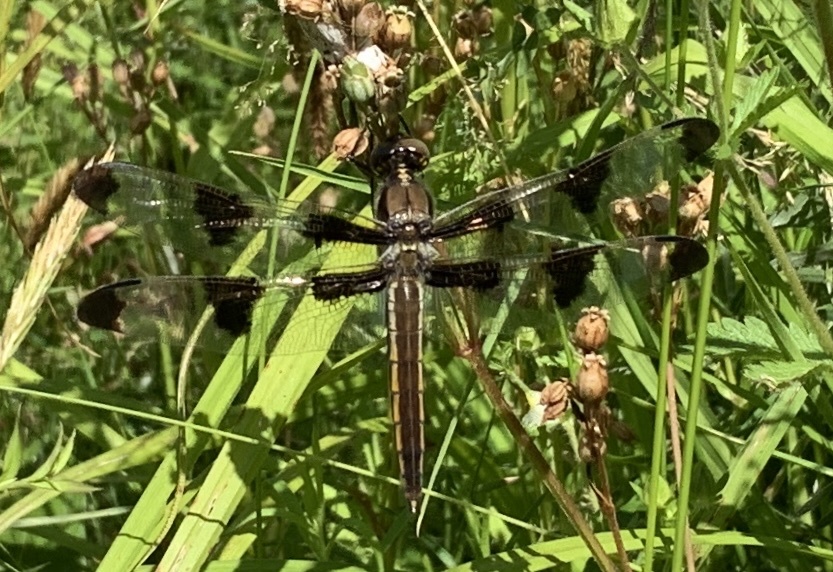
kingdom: Animalia
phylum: Arthropoda
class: Insecta
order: Odonata
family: Libellulidae
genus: Libellula
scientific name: Libellula pulchella
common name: Twelve-spotted skimmer
